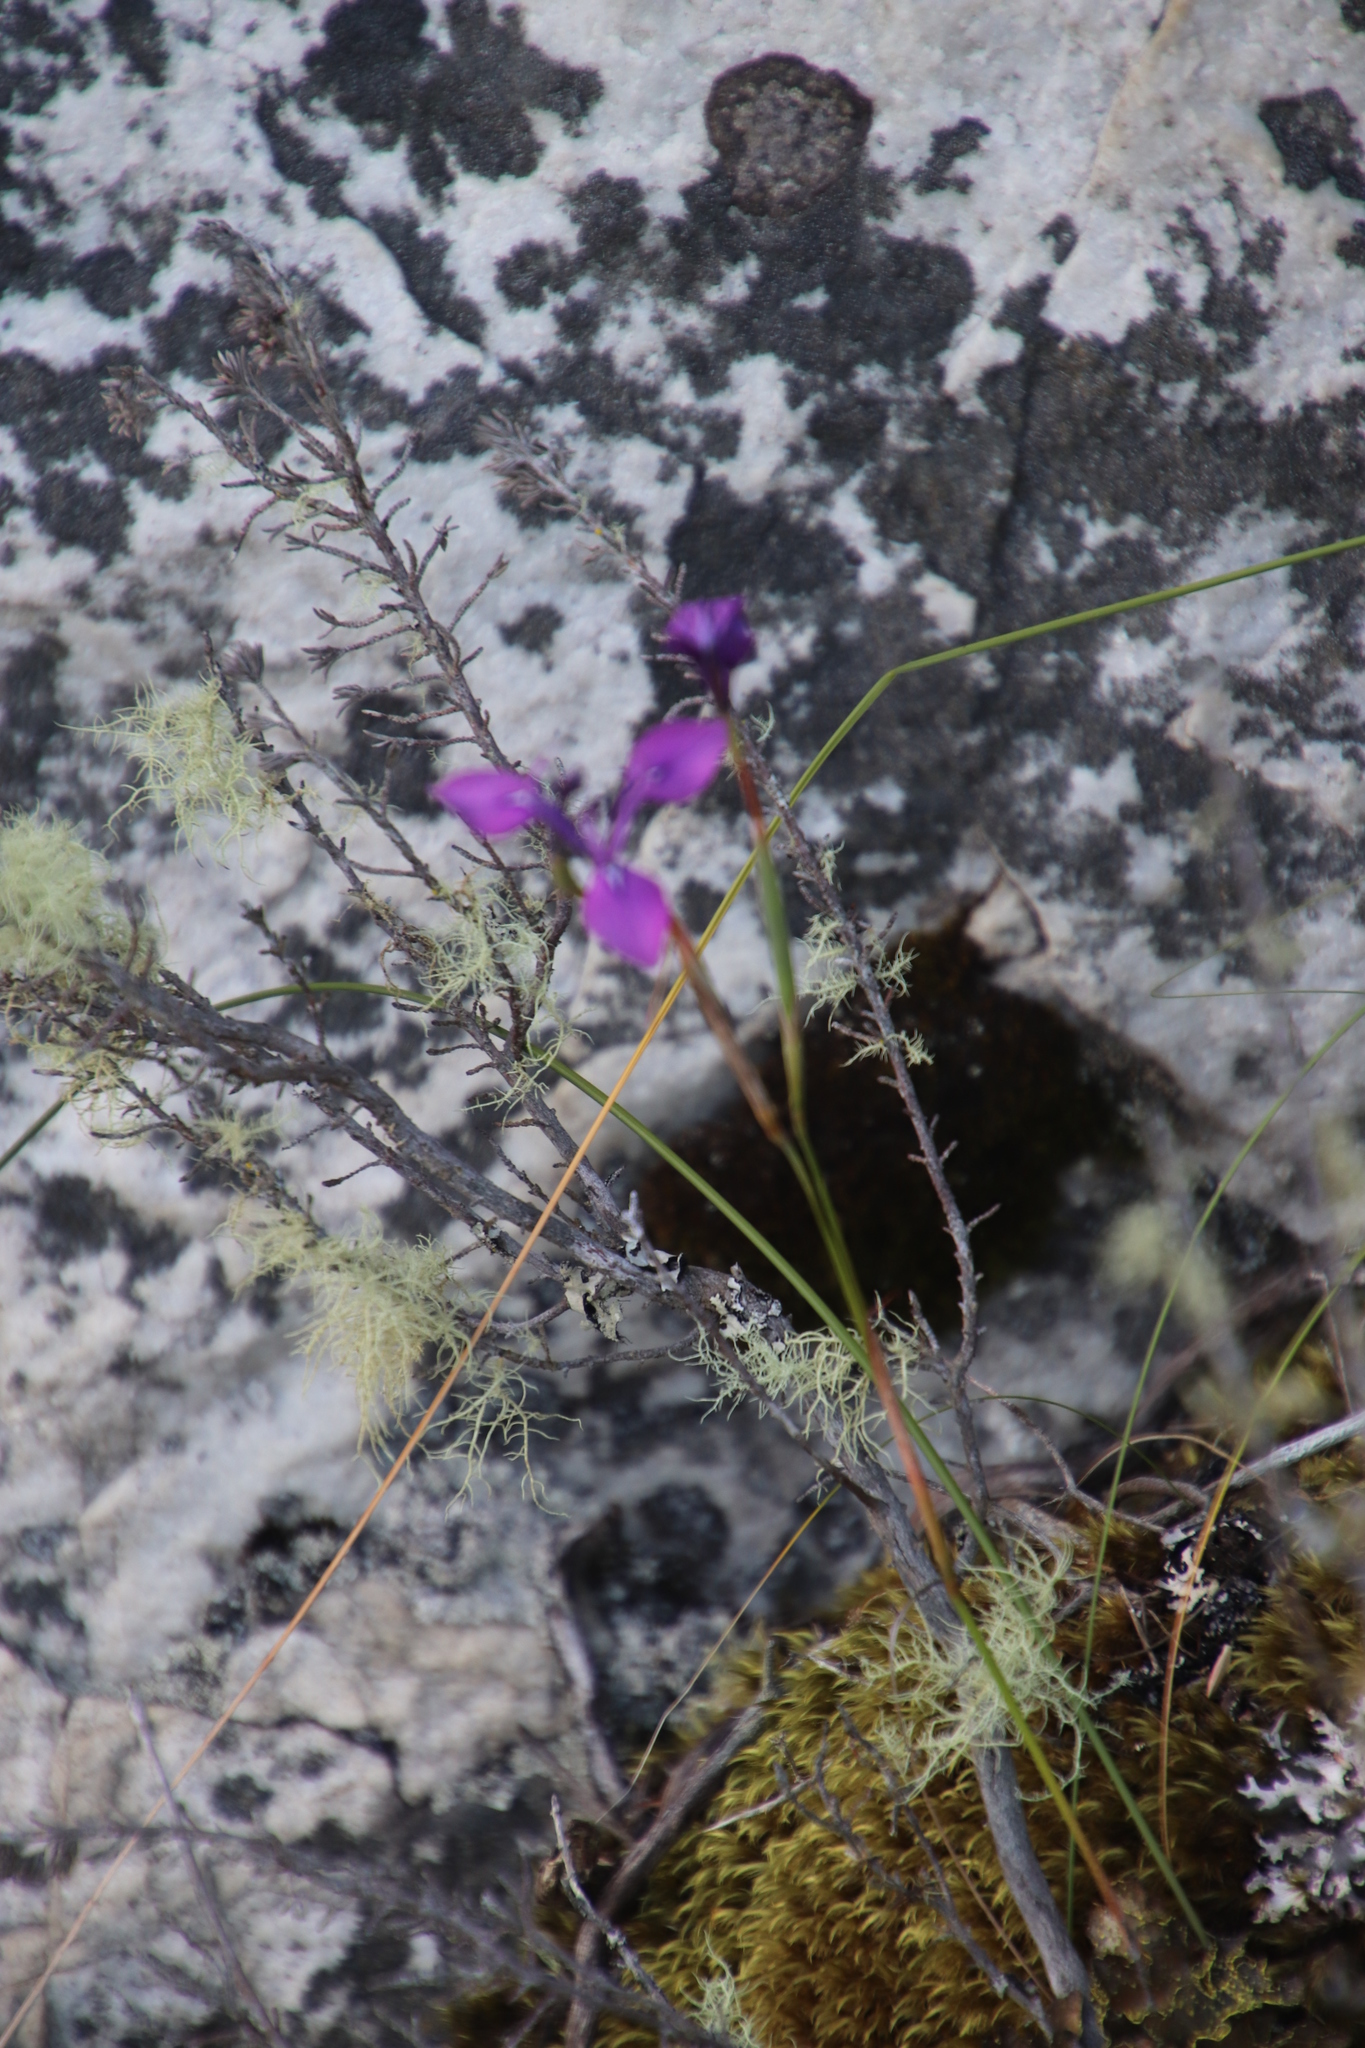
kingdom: Plantae
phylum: Tracheophyta
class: Liliopsida
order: Asparagales
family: Iridaceae
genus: Moraea
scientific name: Moraea tripetala
